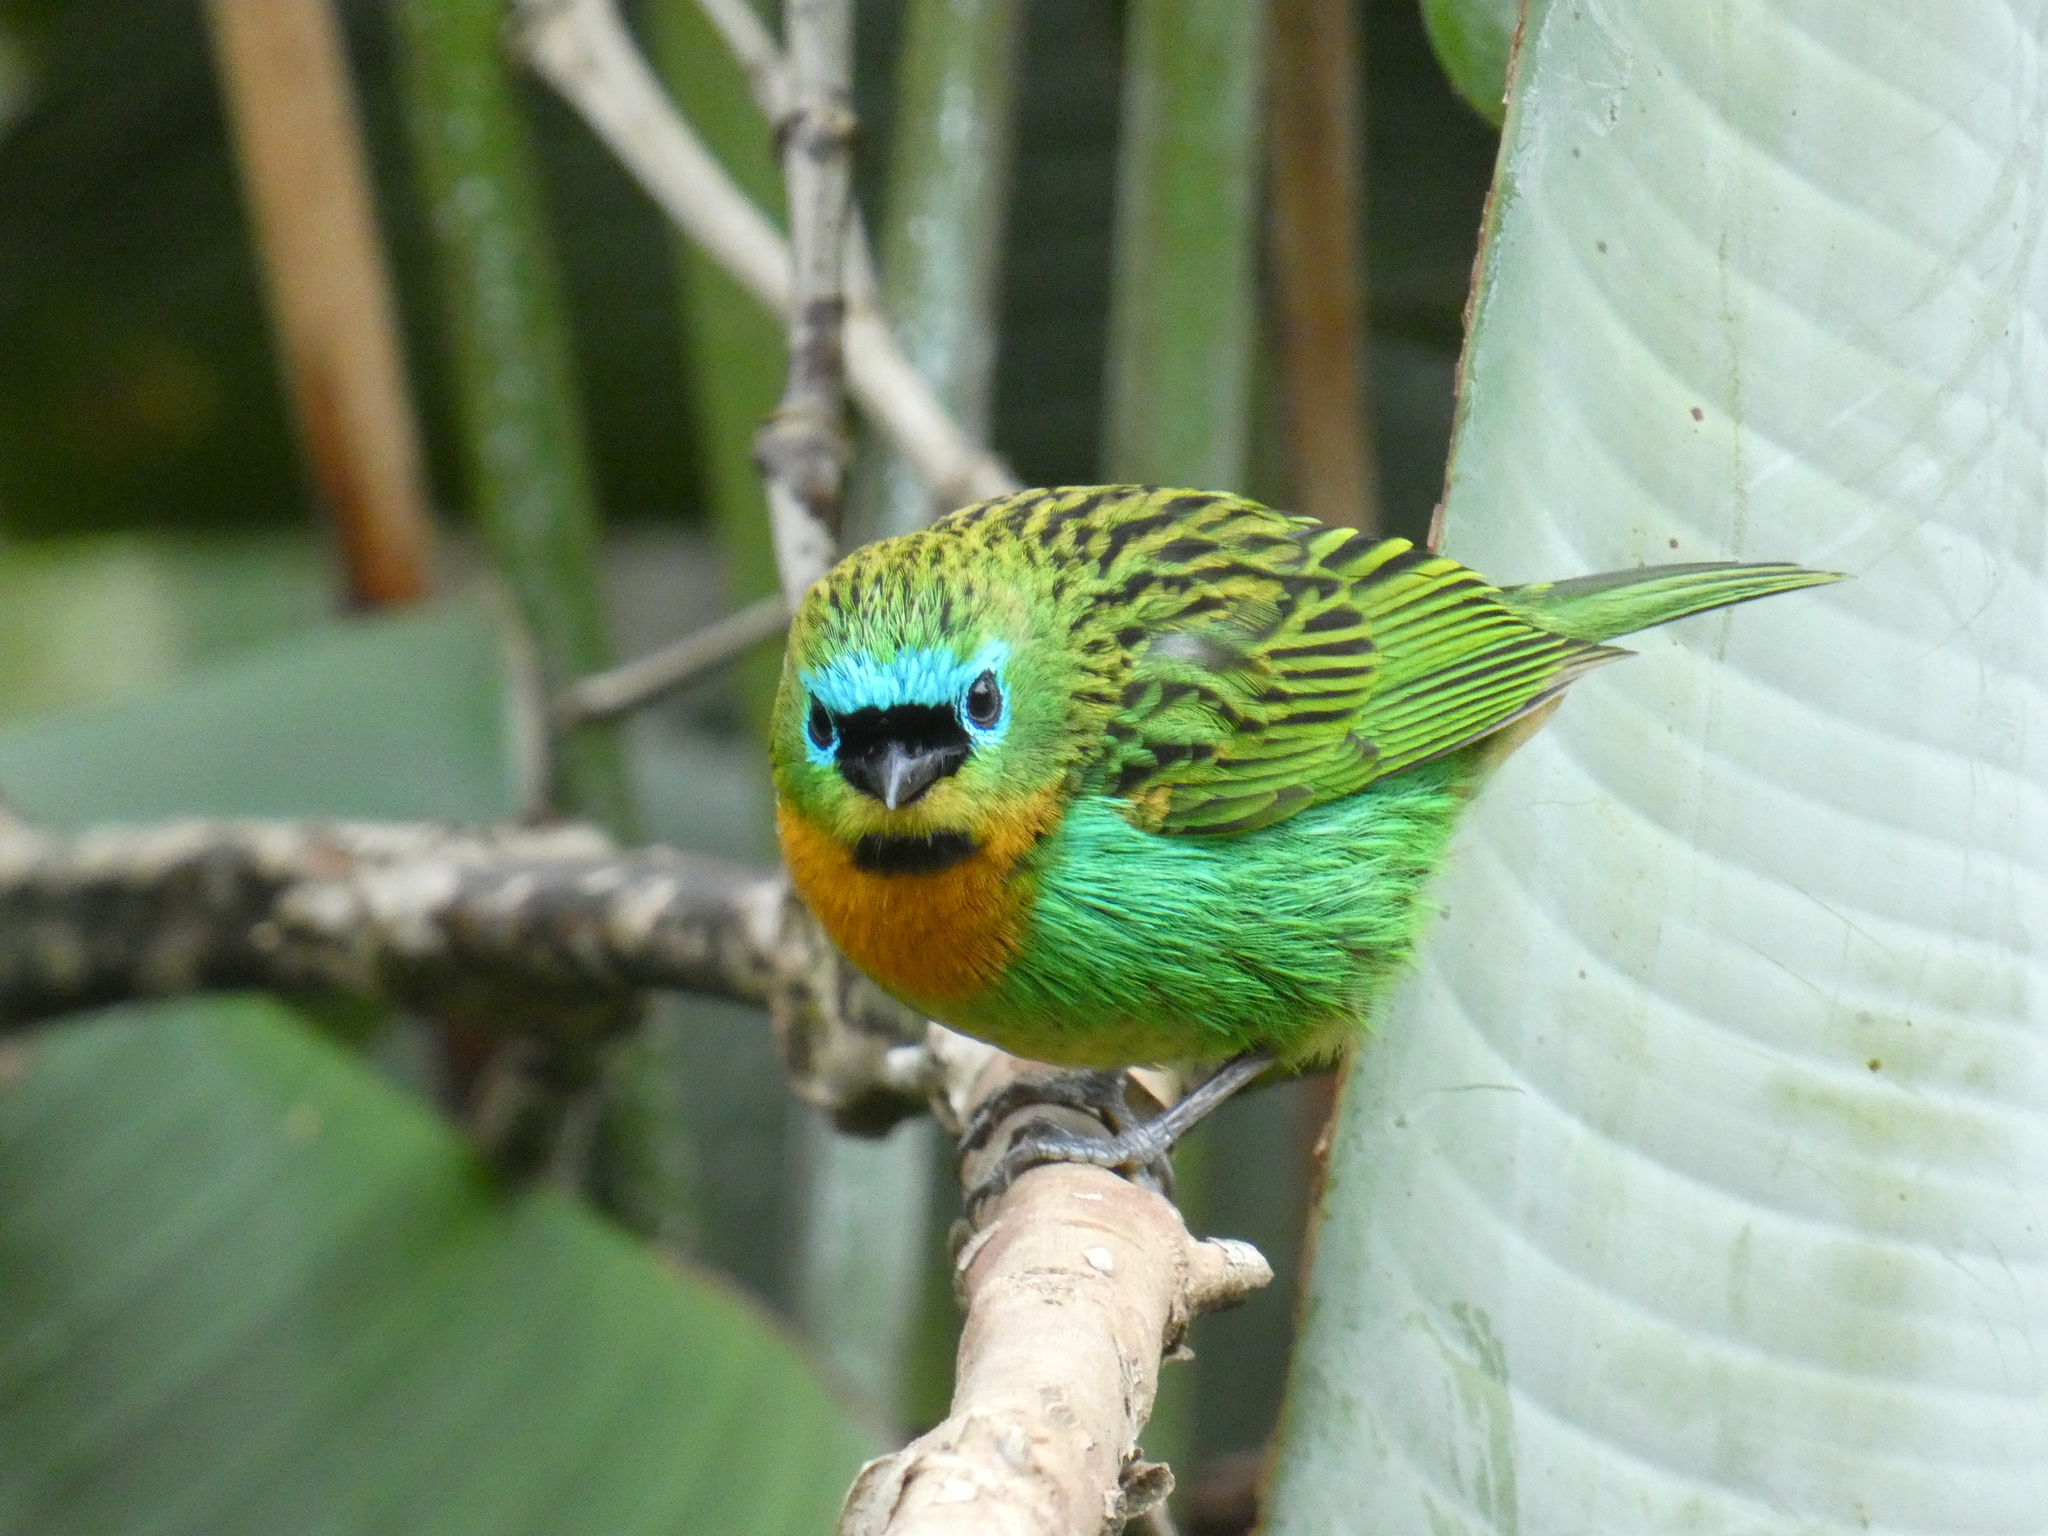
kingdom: Animalia
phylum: Chordata
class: Aves
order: Passeriformes
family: Thraupidae
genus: Tangara
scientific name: Tangara desmaresti
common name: Brassy-breasted tanager
